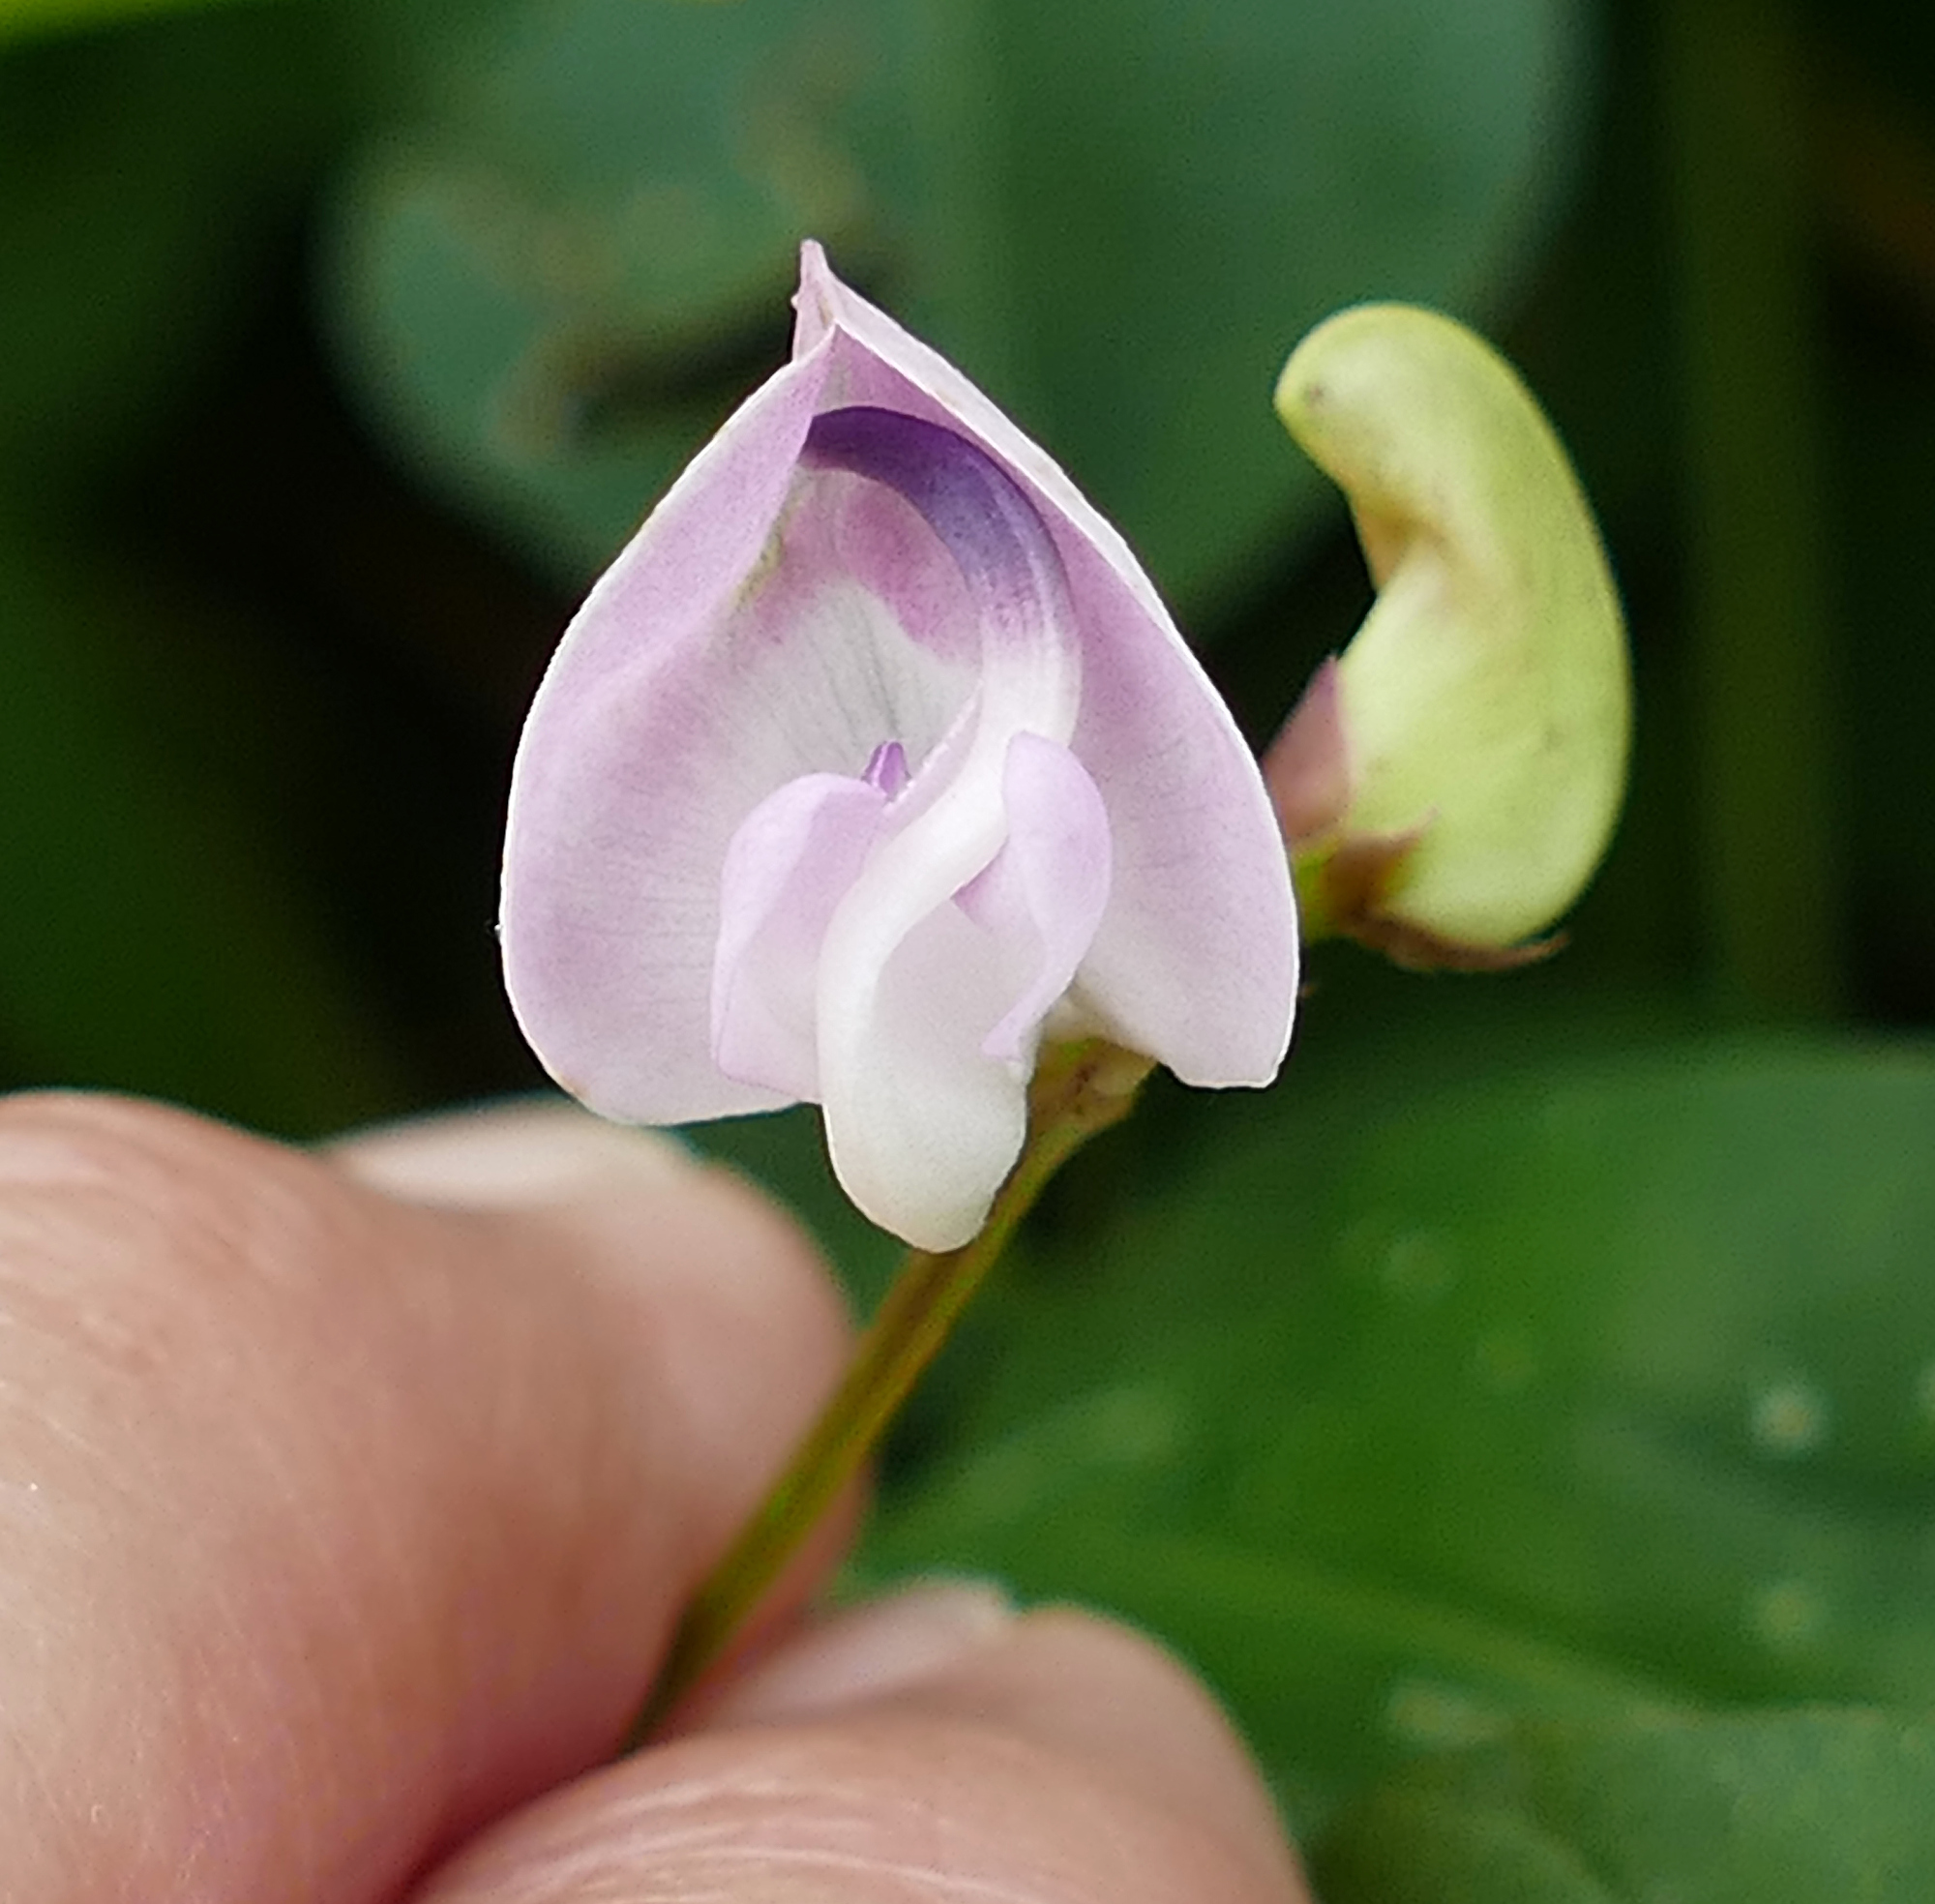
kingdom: Plantae
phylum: Tracheophyta
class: Magnoliopsida
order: Fabales
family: Fabaceae
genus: Strophostyles
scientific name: Strophostyles helvola
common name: Trailing wild bean
